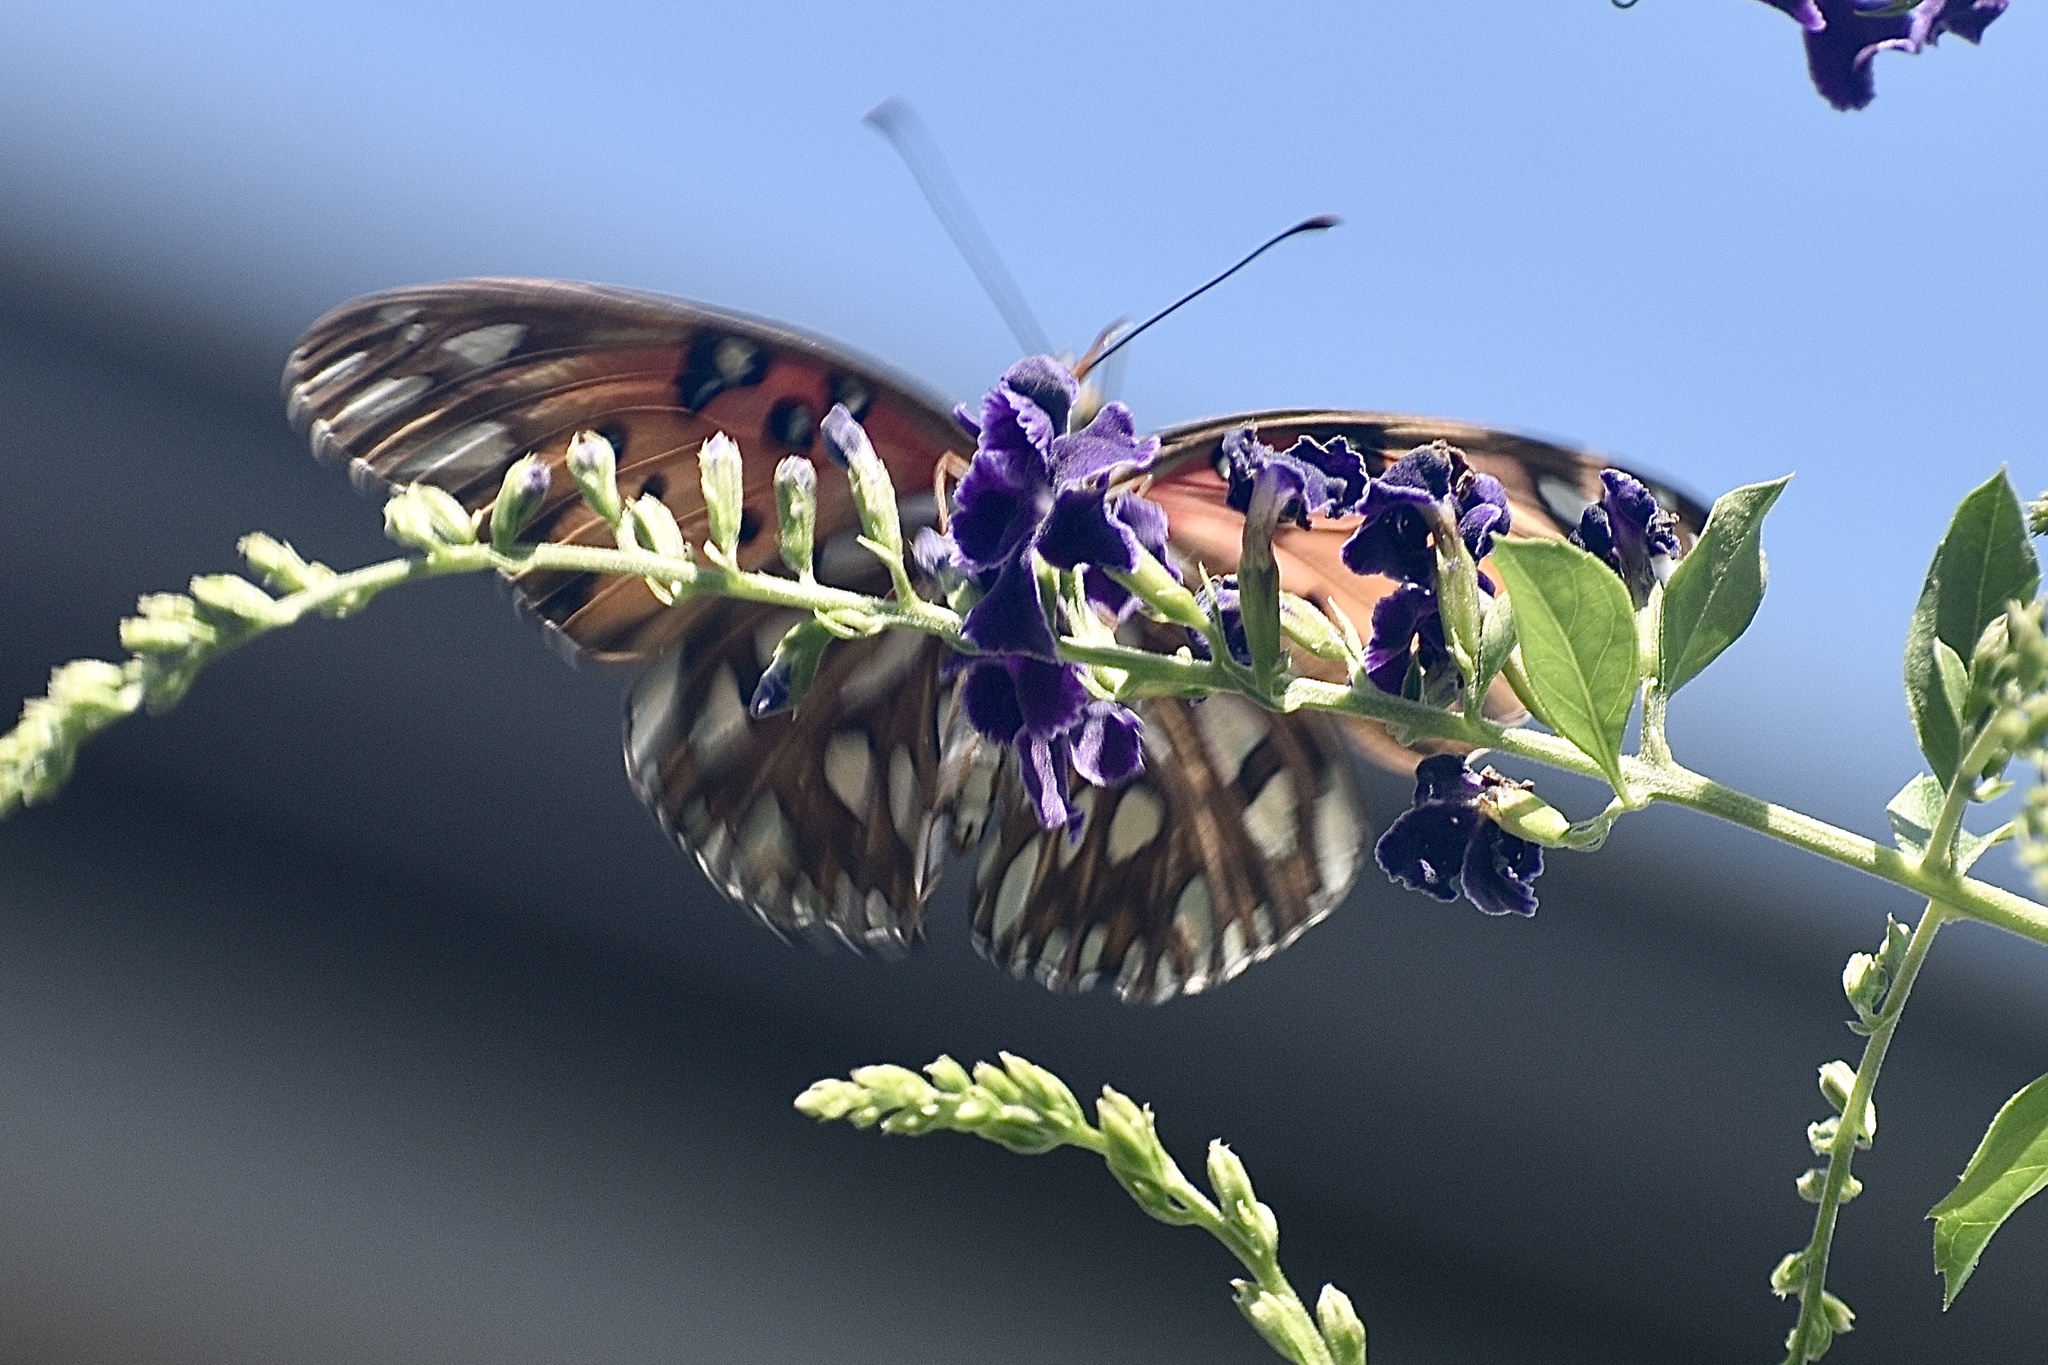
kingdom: Animalia
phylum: Arthropoda
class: Insecta
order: Lepidoptera
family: Nymphalidae
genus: Dione
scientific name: Dione vanillae
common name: Gulf fritillary
